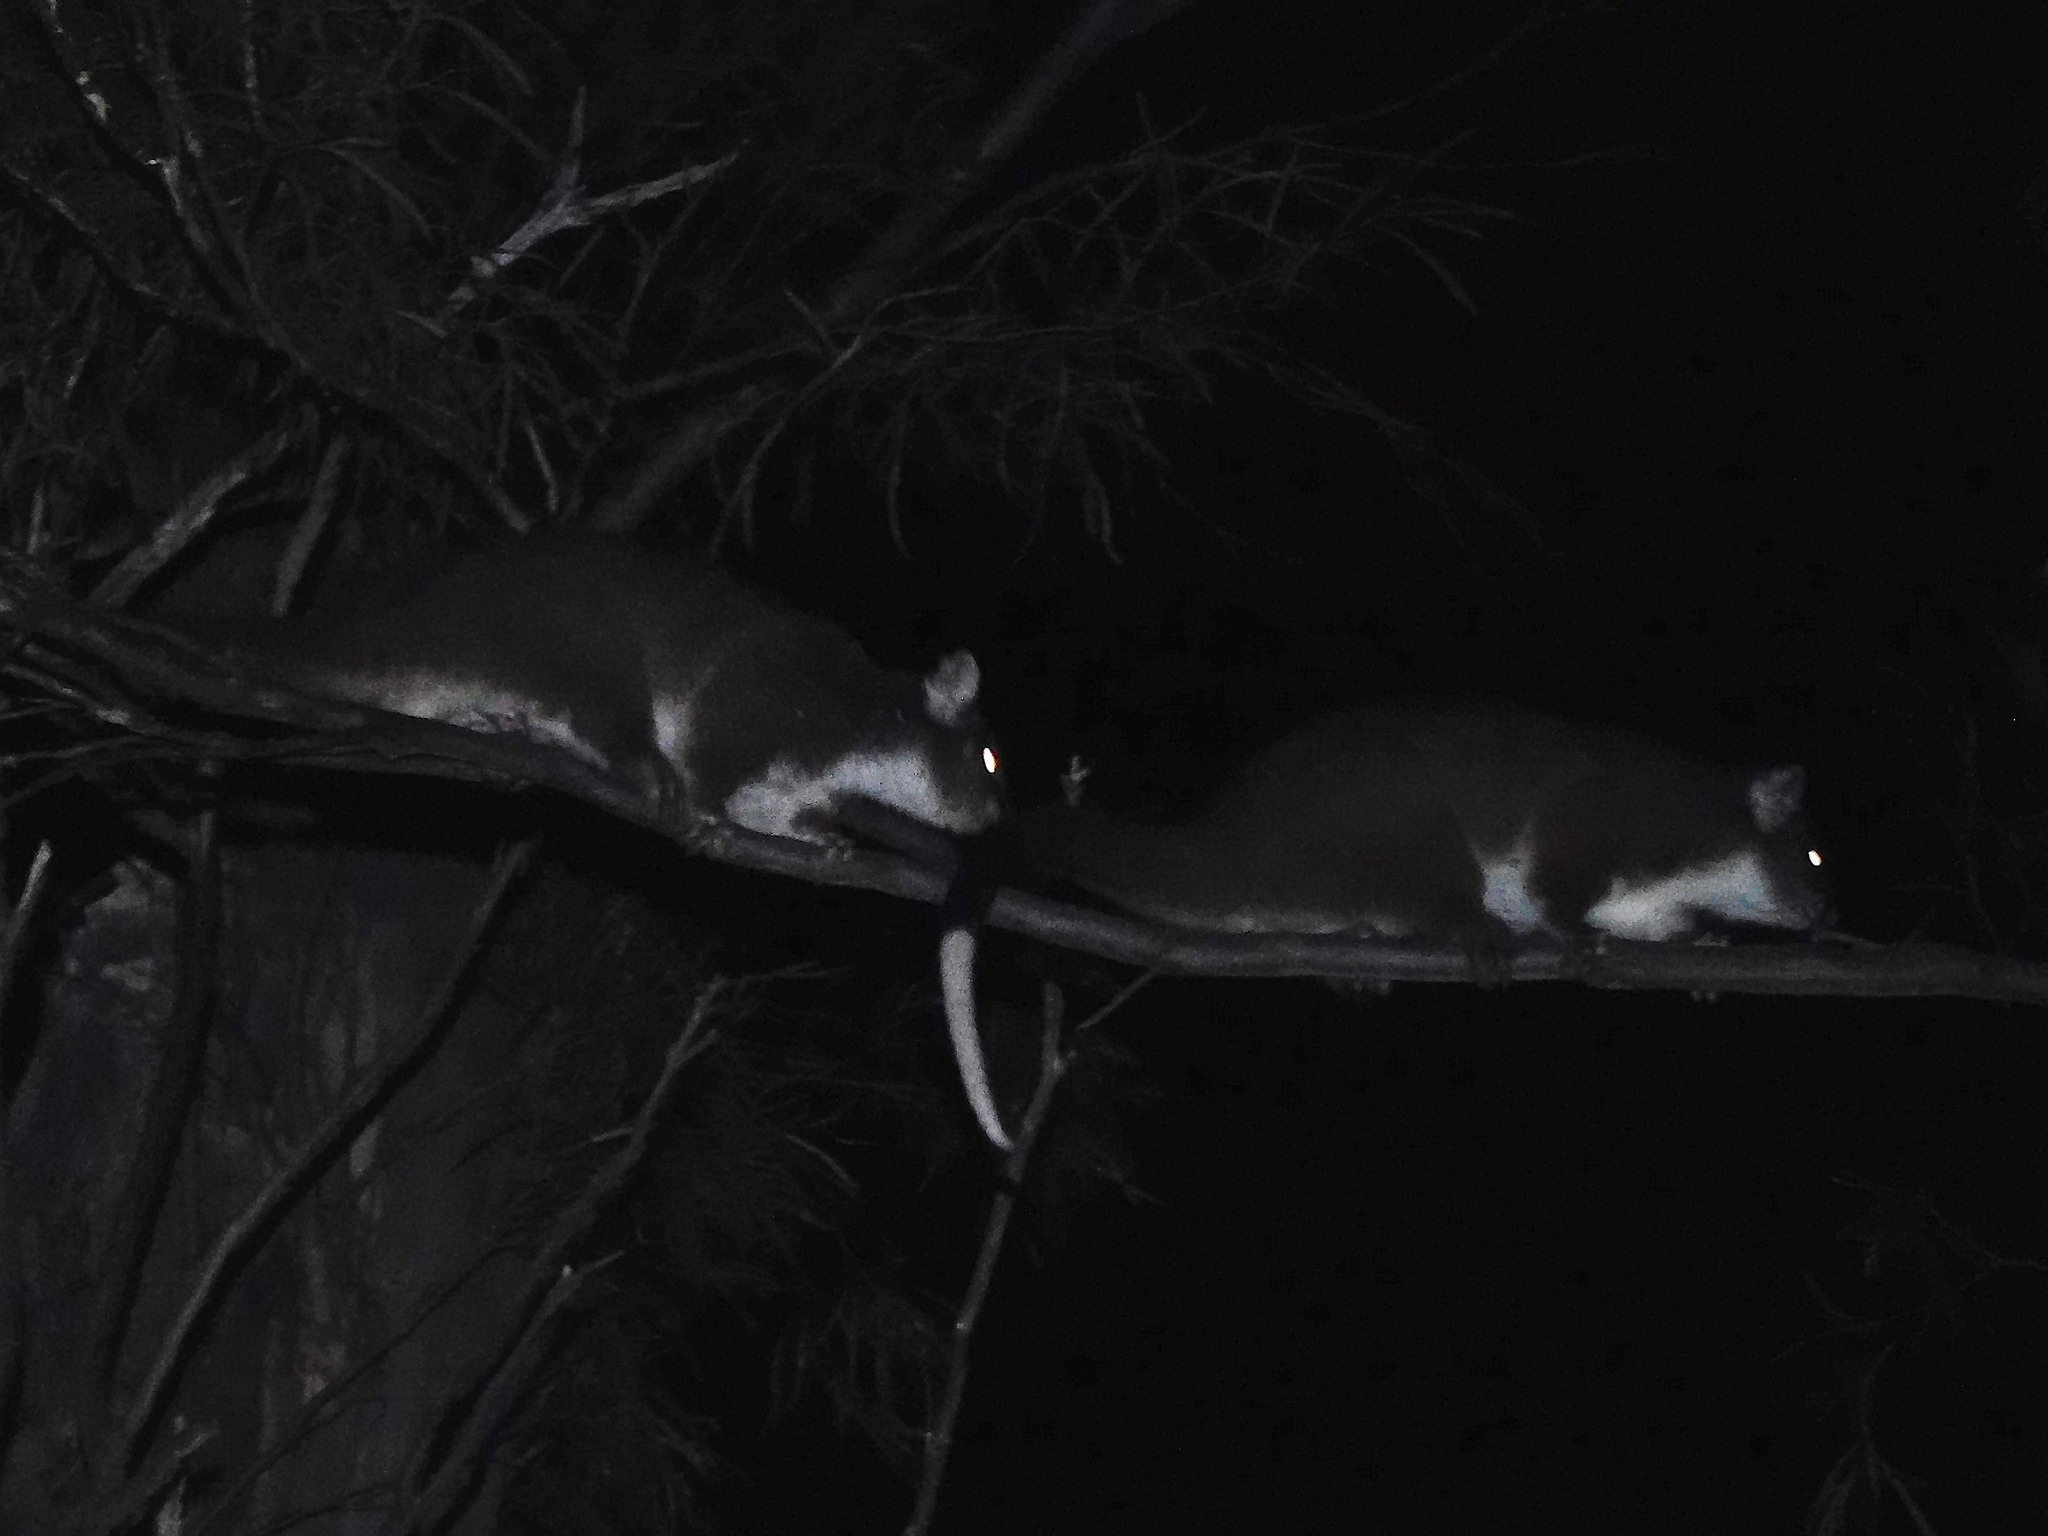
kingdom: Animalia
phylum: Chordata
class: Mammalia
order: Diprotodontia
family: Pseudocheiridae
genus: Pseudocheirus
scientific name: Pseudocheirus peregrinus
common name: Common ringtail possum
